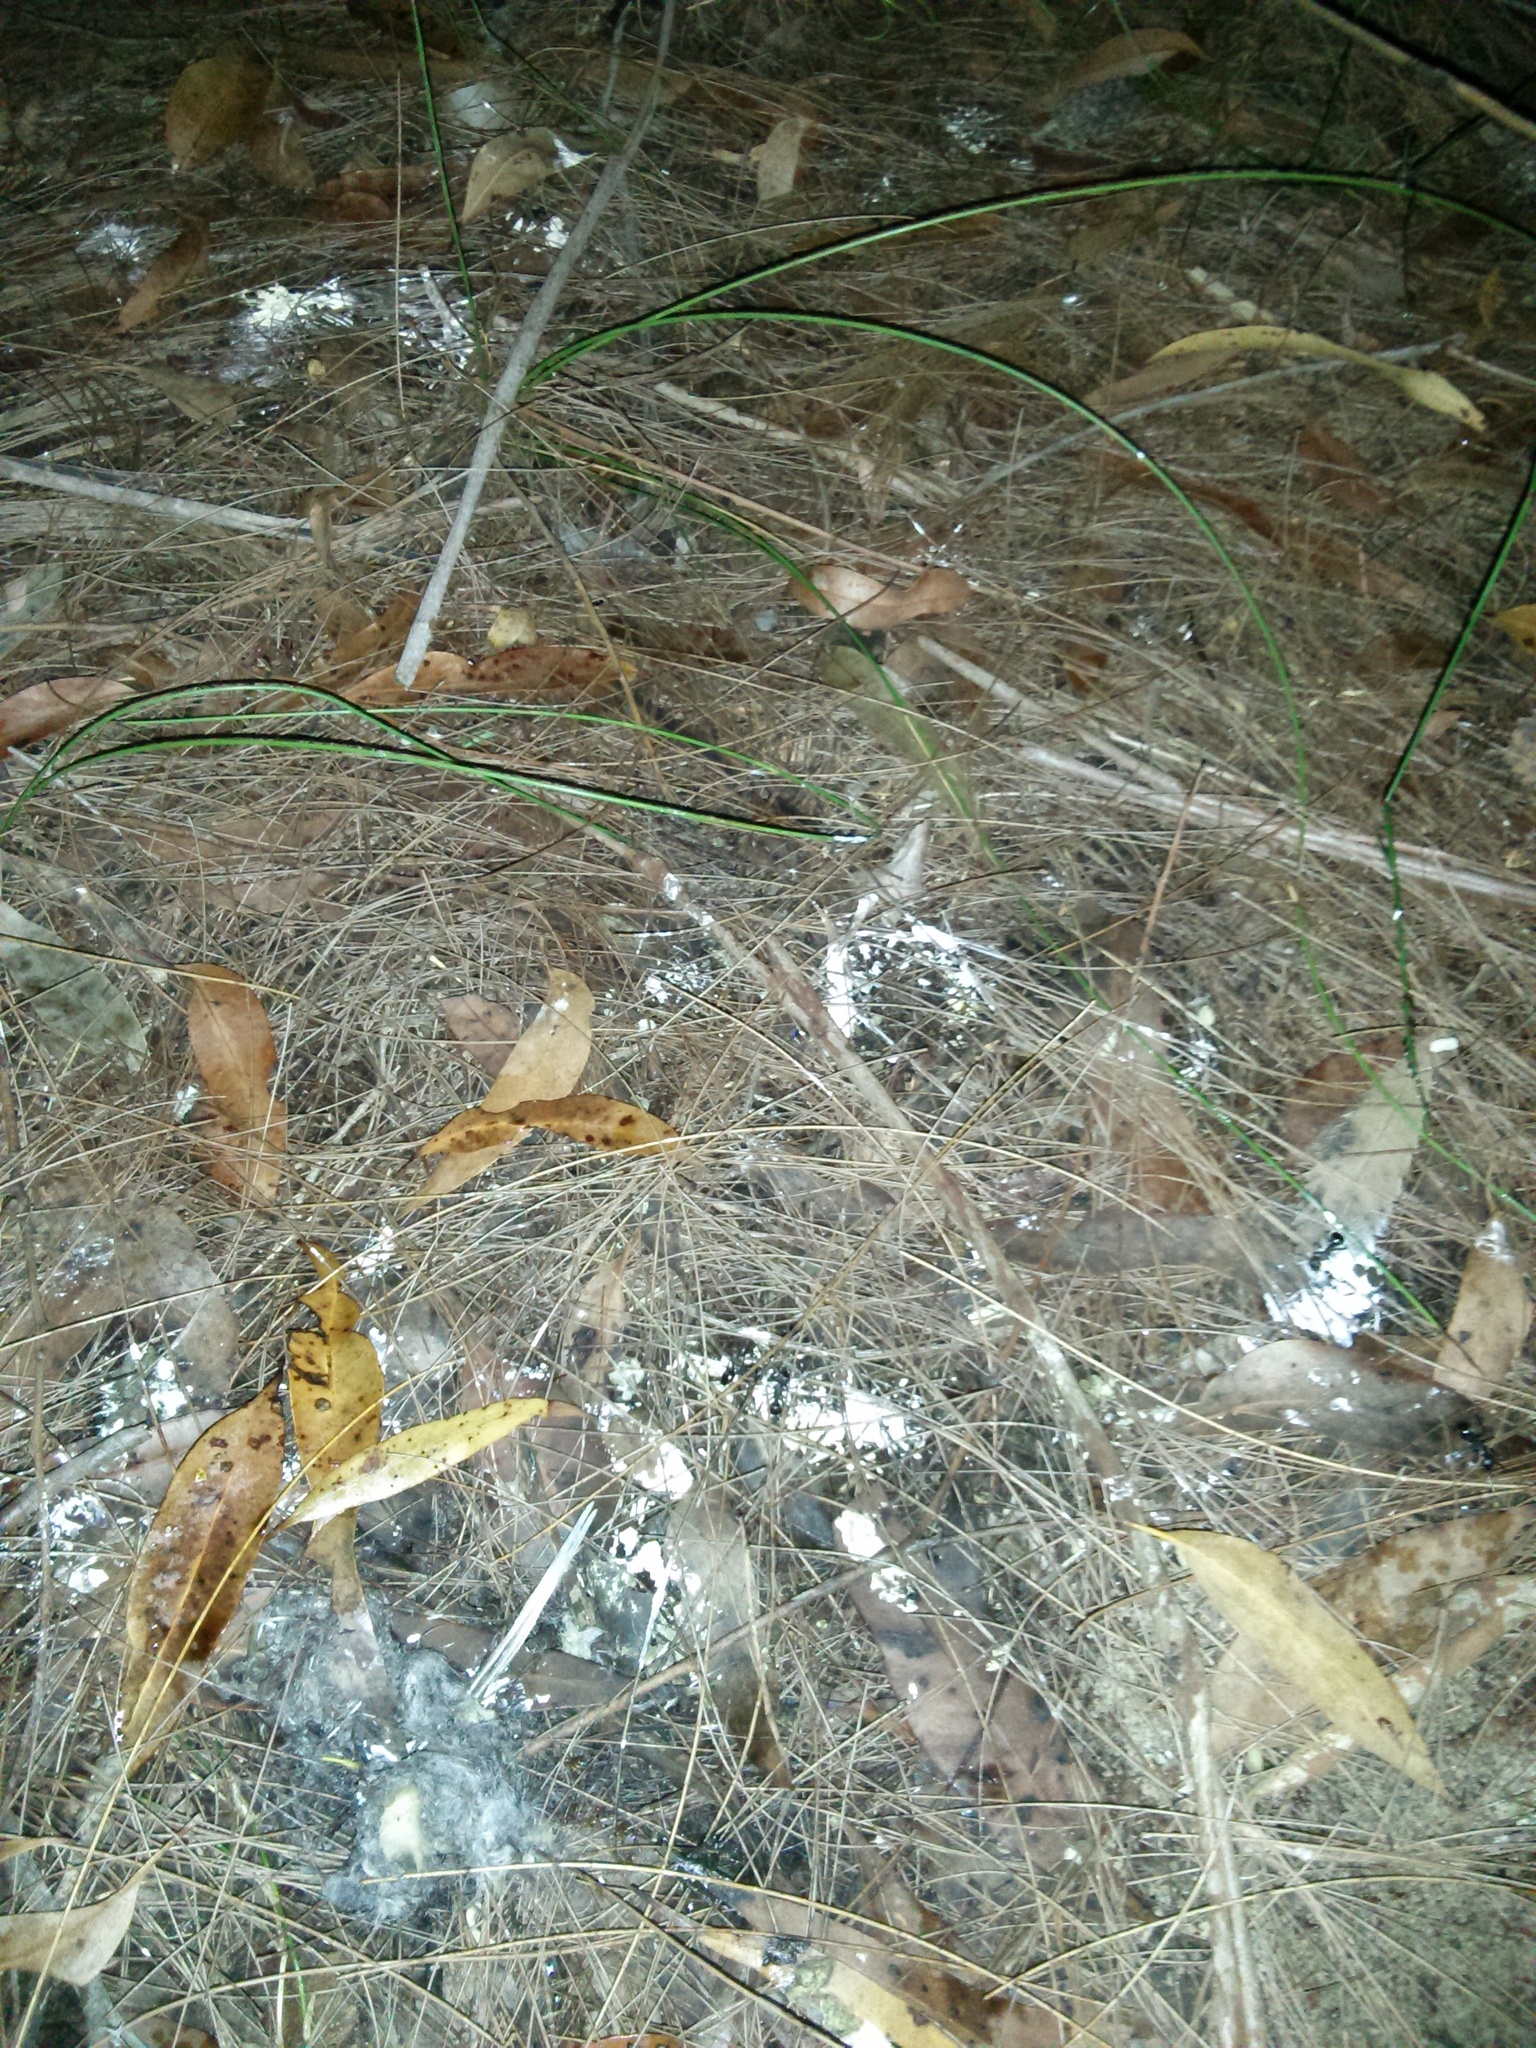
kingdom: Animalia
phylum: Chordata
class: Aves
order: Strigiformes
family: Strigidae
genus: Ninox
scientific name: Ninox strenua
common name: Powerful owl
